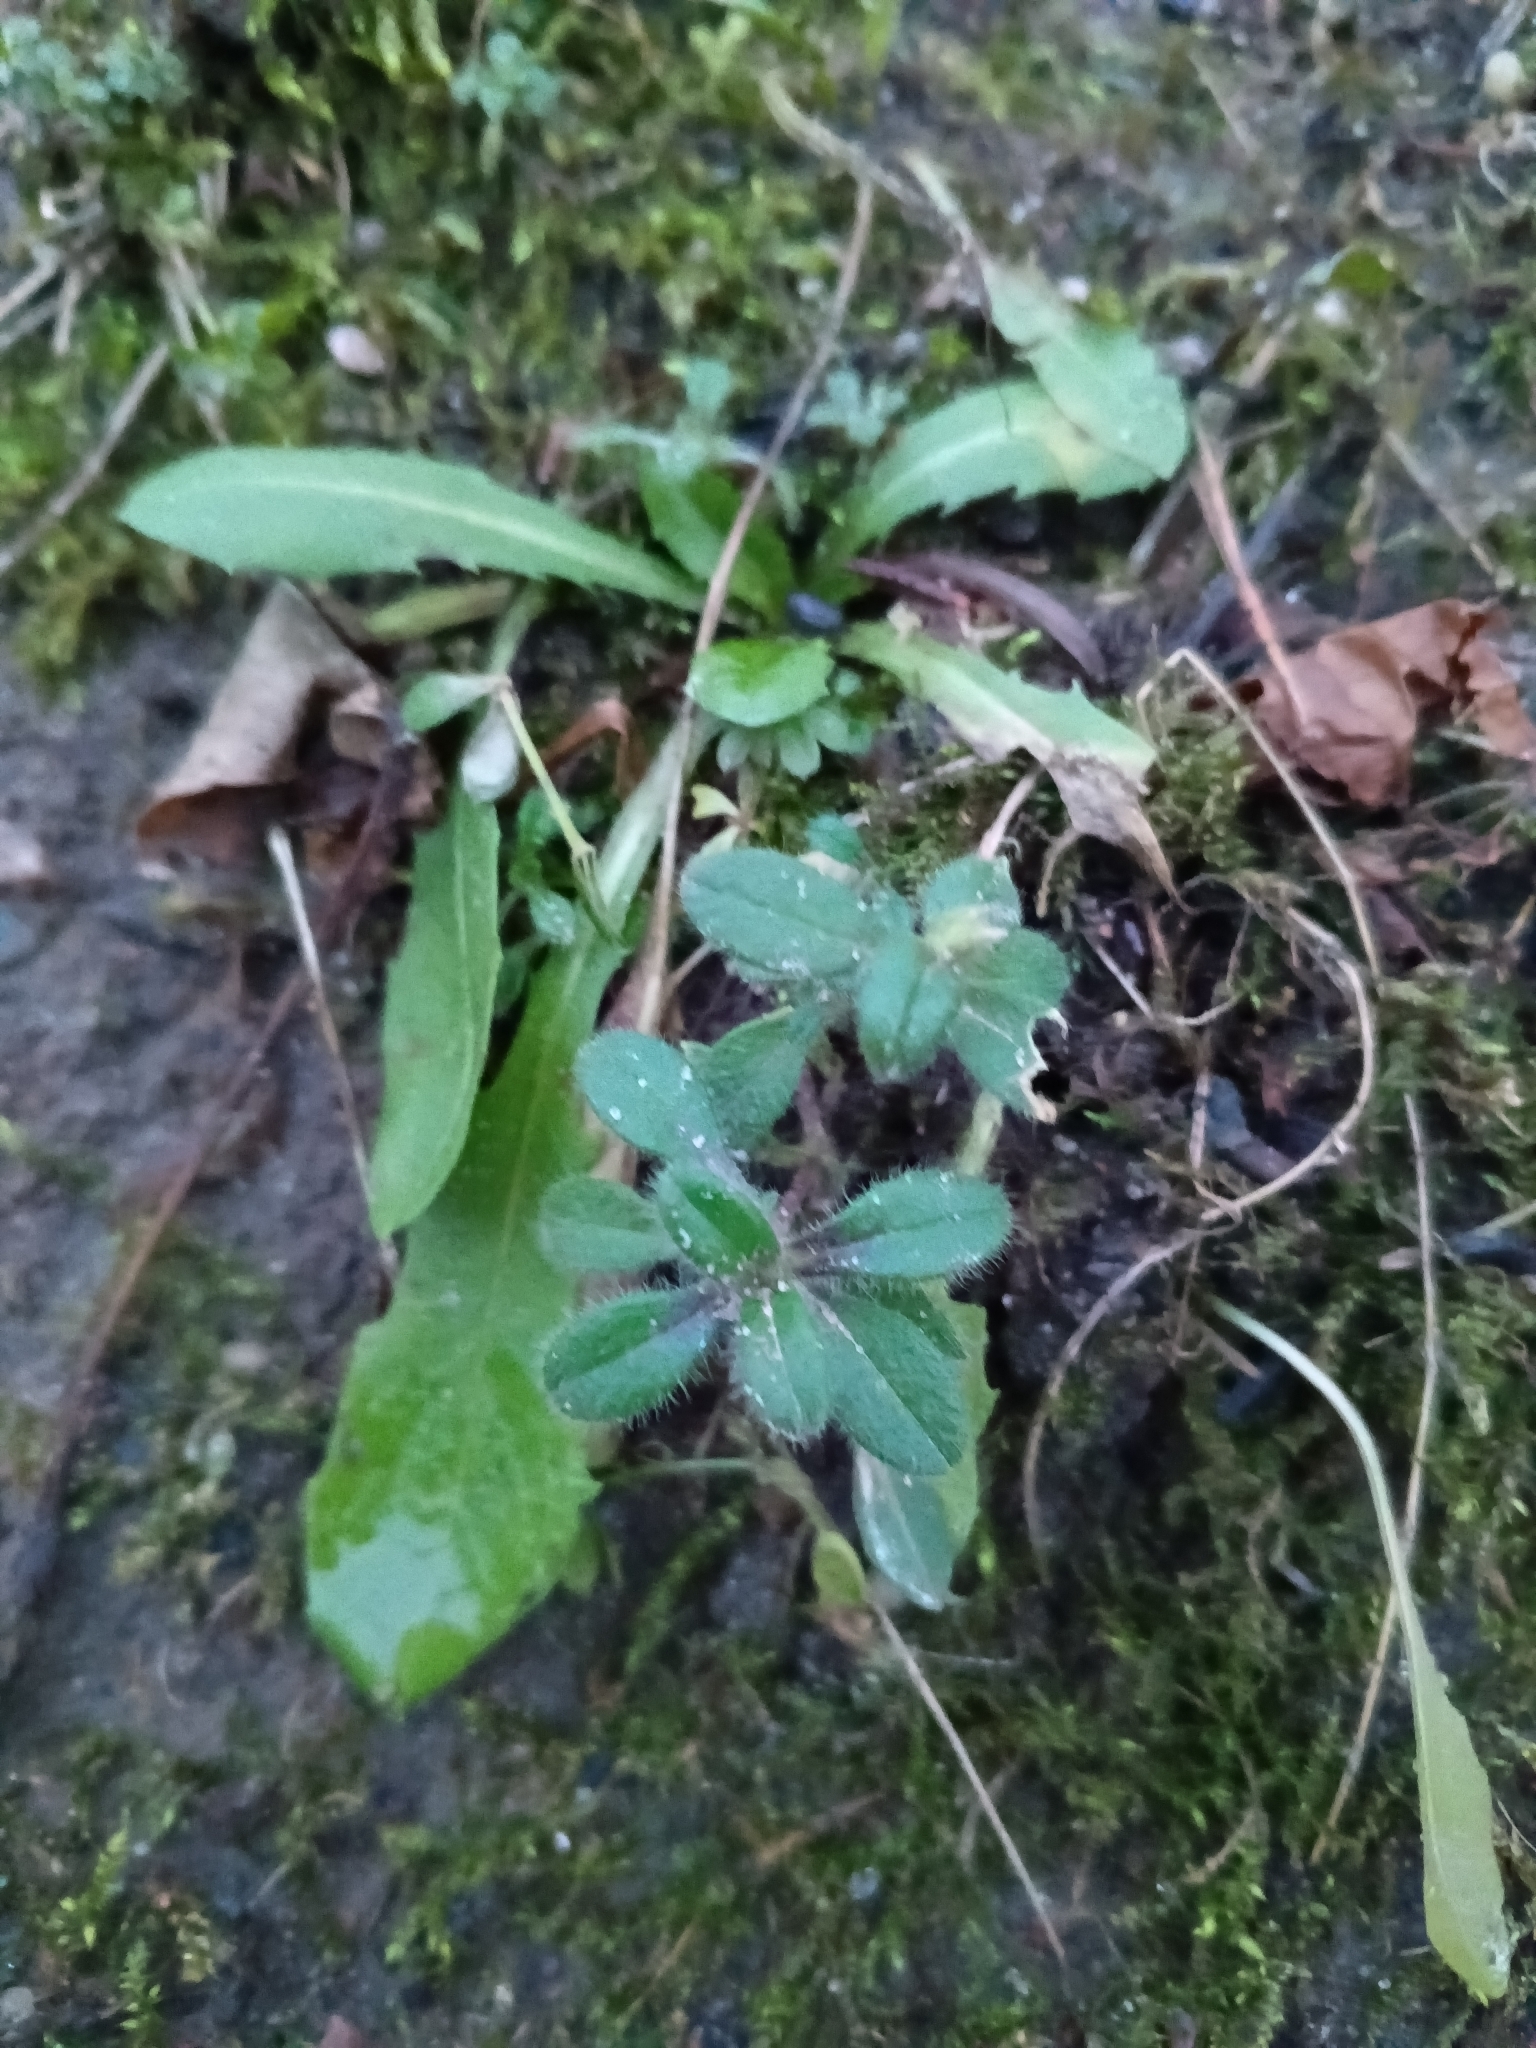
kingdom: Plantae
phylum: Tracheophyta
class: Magnoliopsida
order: Caryophyllales
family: Caryophyllaceae
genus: Cerastium
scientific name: Cerastium holosteoides
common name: Big chickweed
